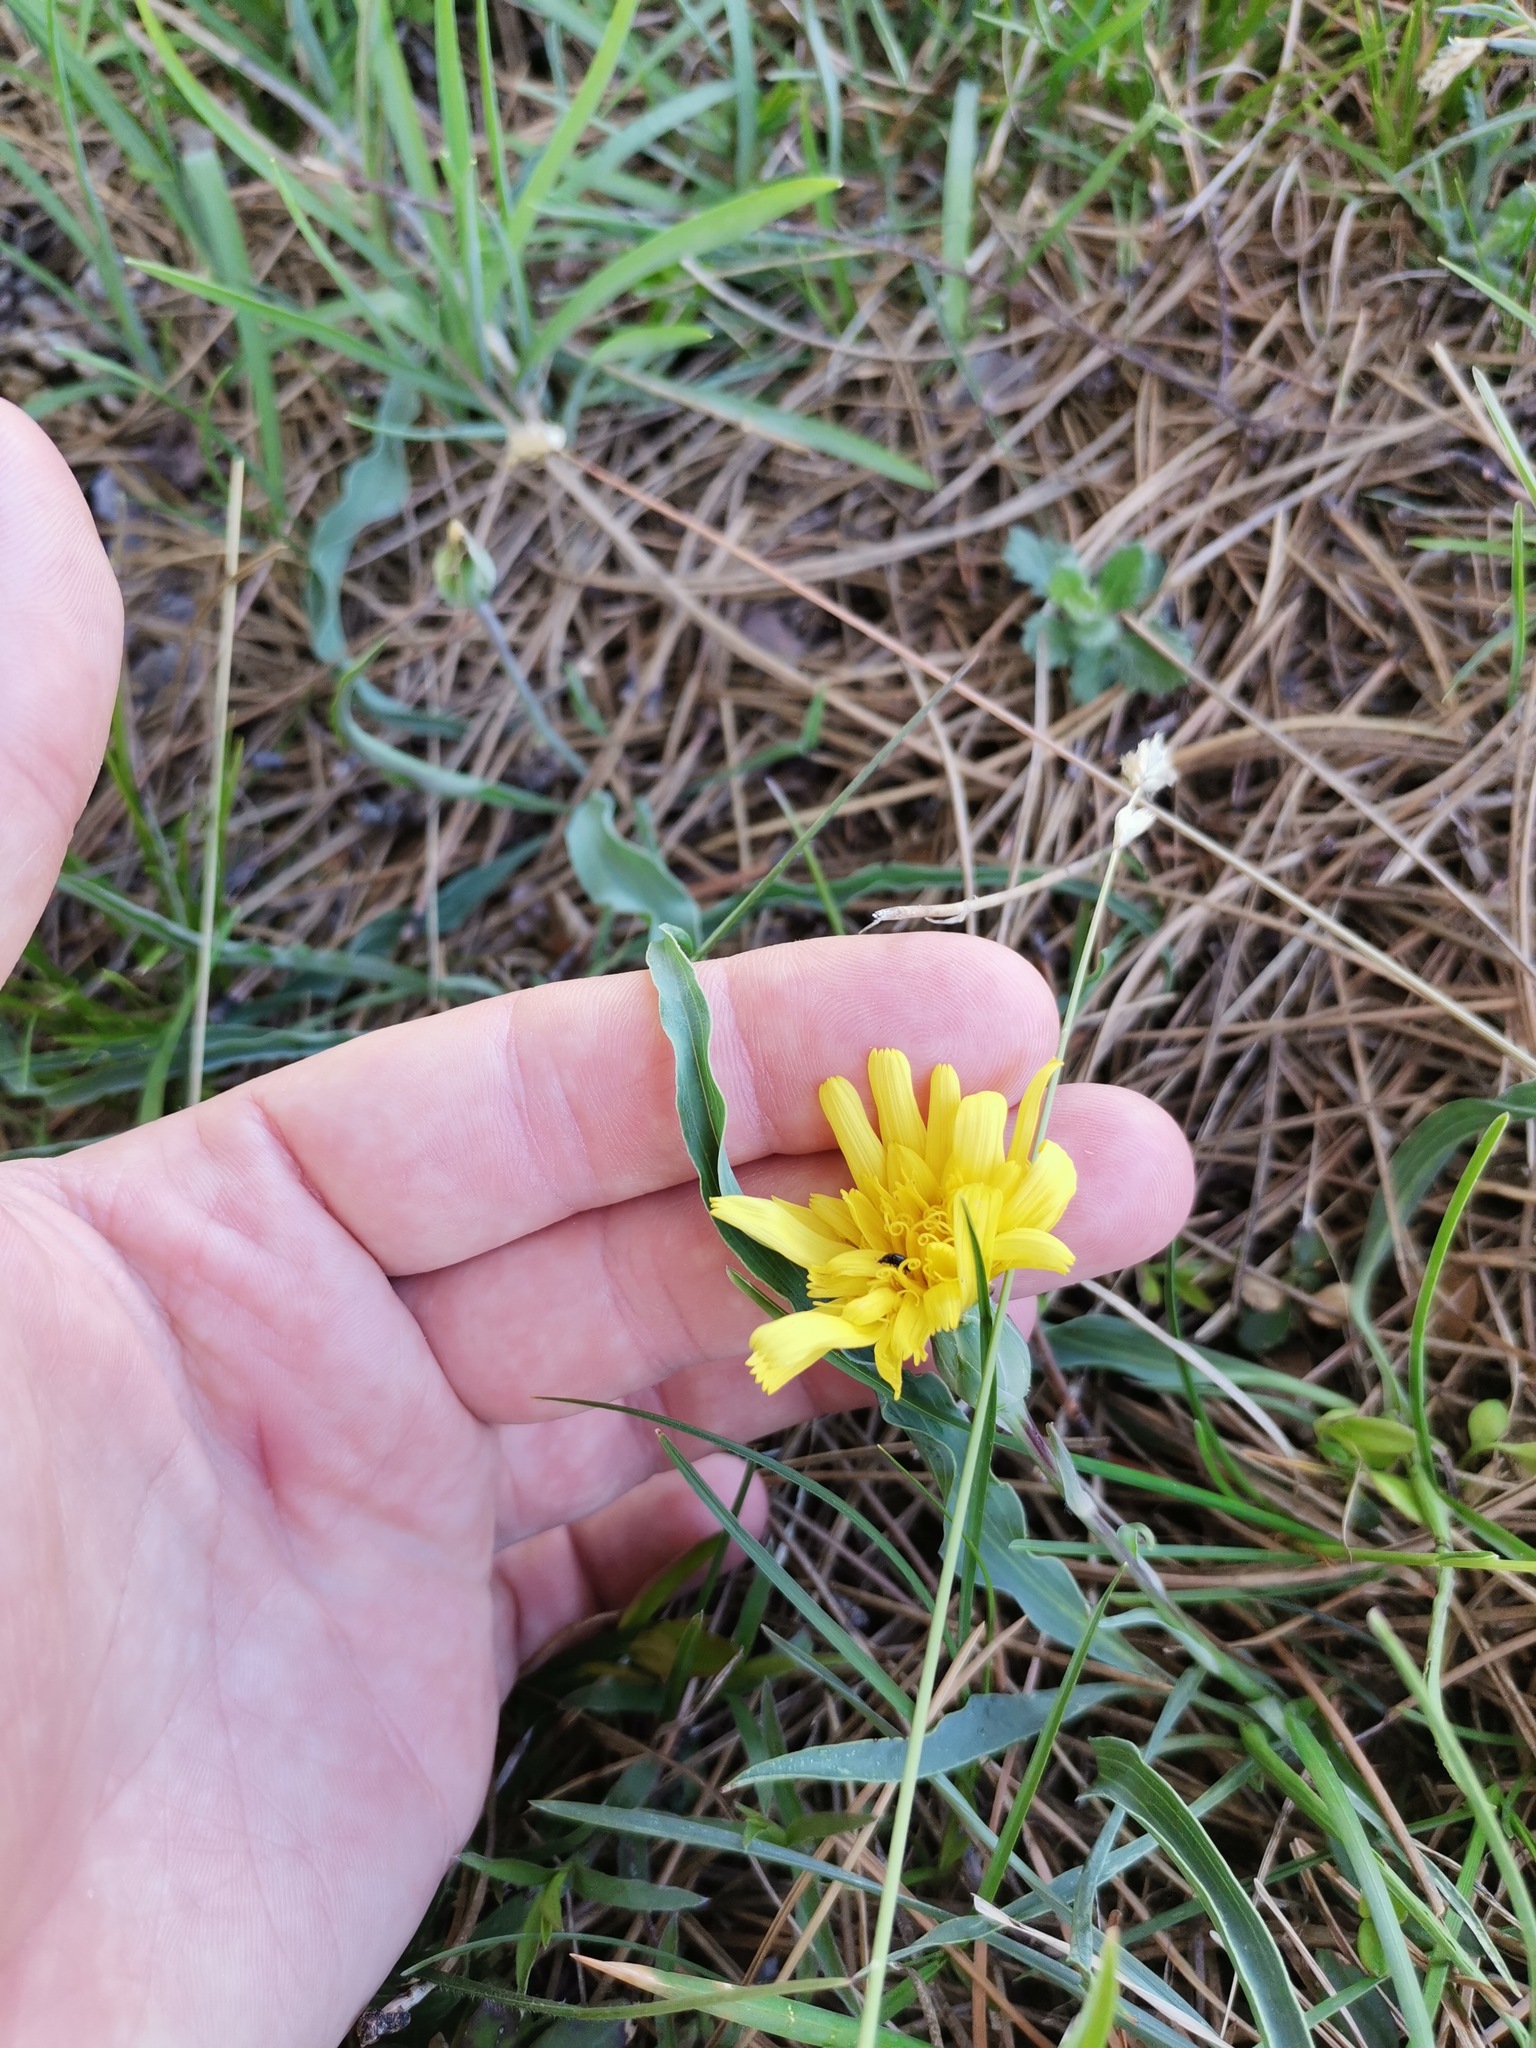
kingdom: Plantae
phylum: Tracheophyta
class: Magnoliopsida
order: Asterales
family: Asteraceae
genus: Takhtajaniantha
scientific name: Takhtajaniantha austriaca
